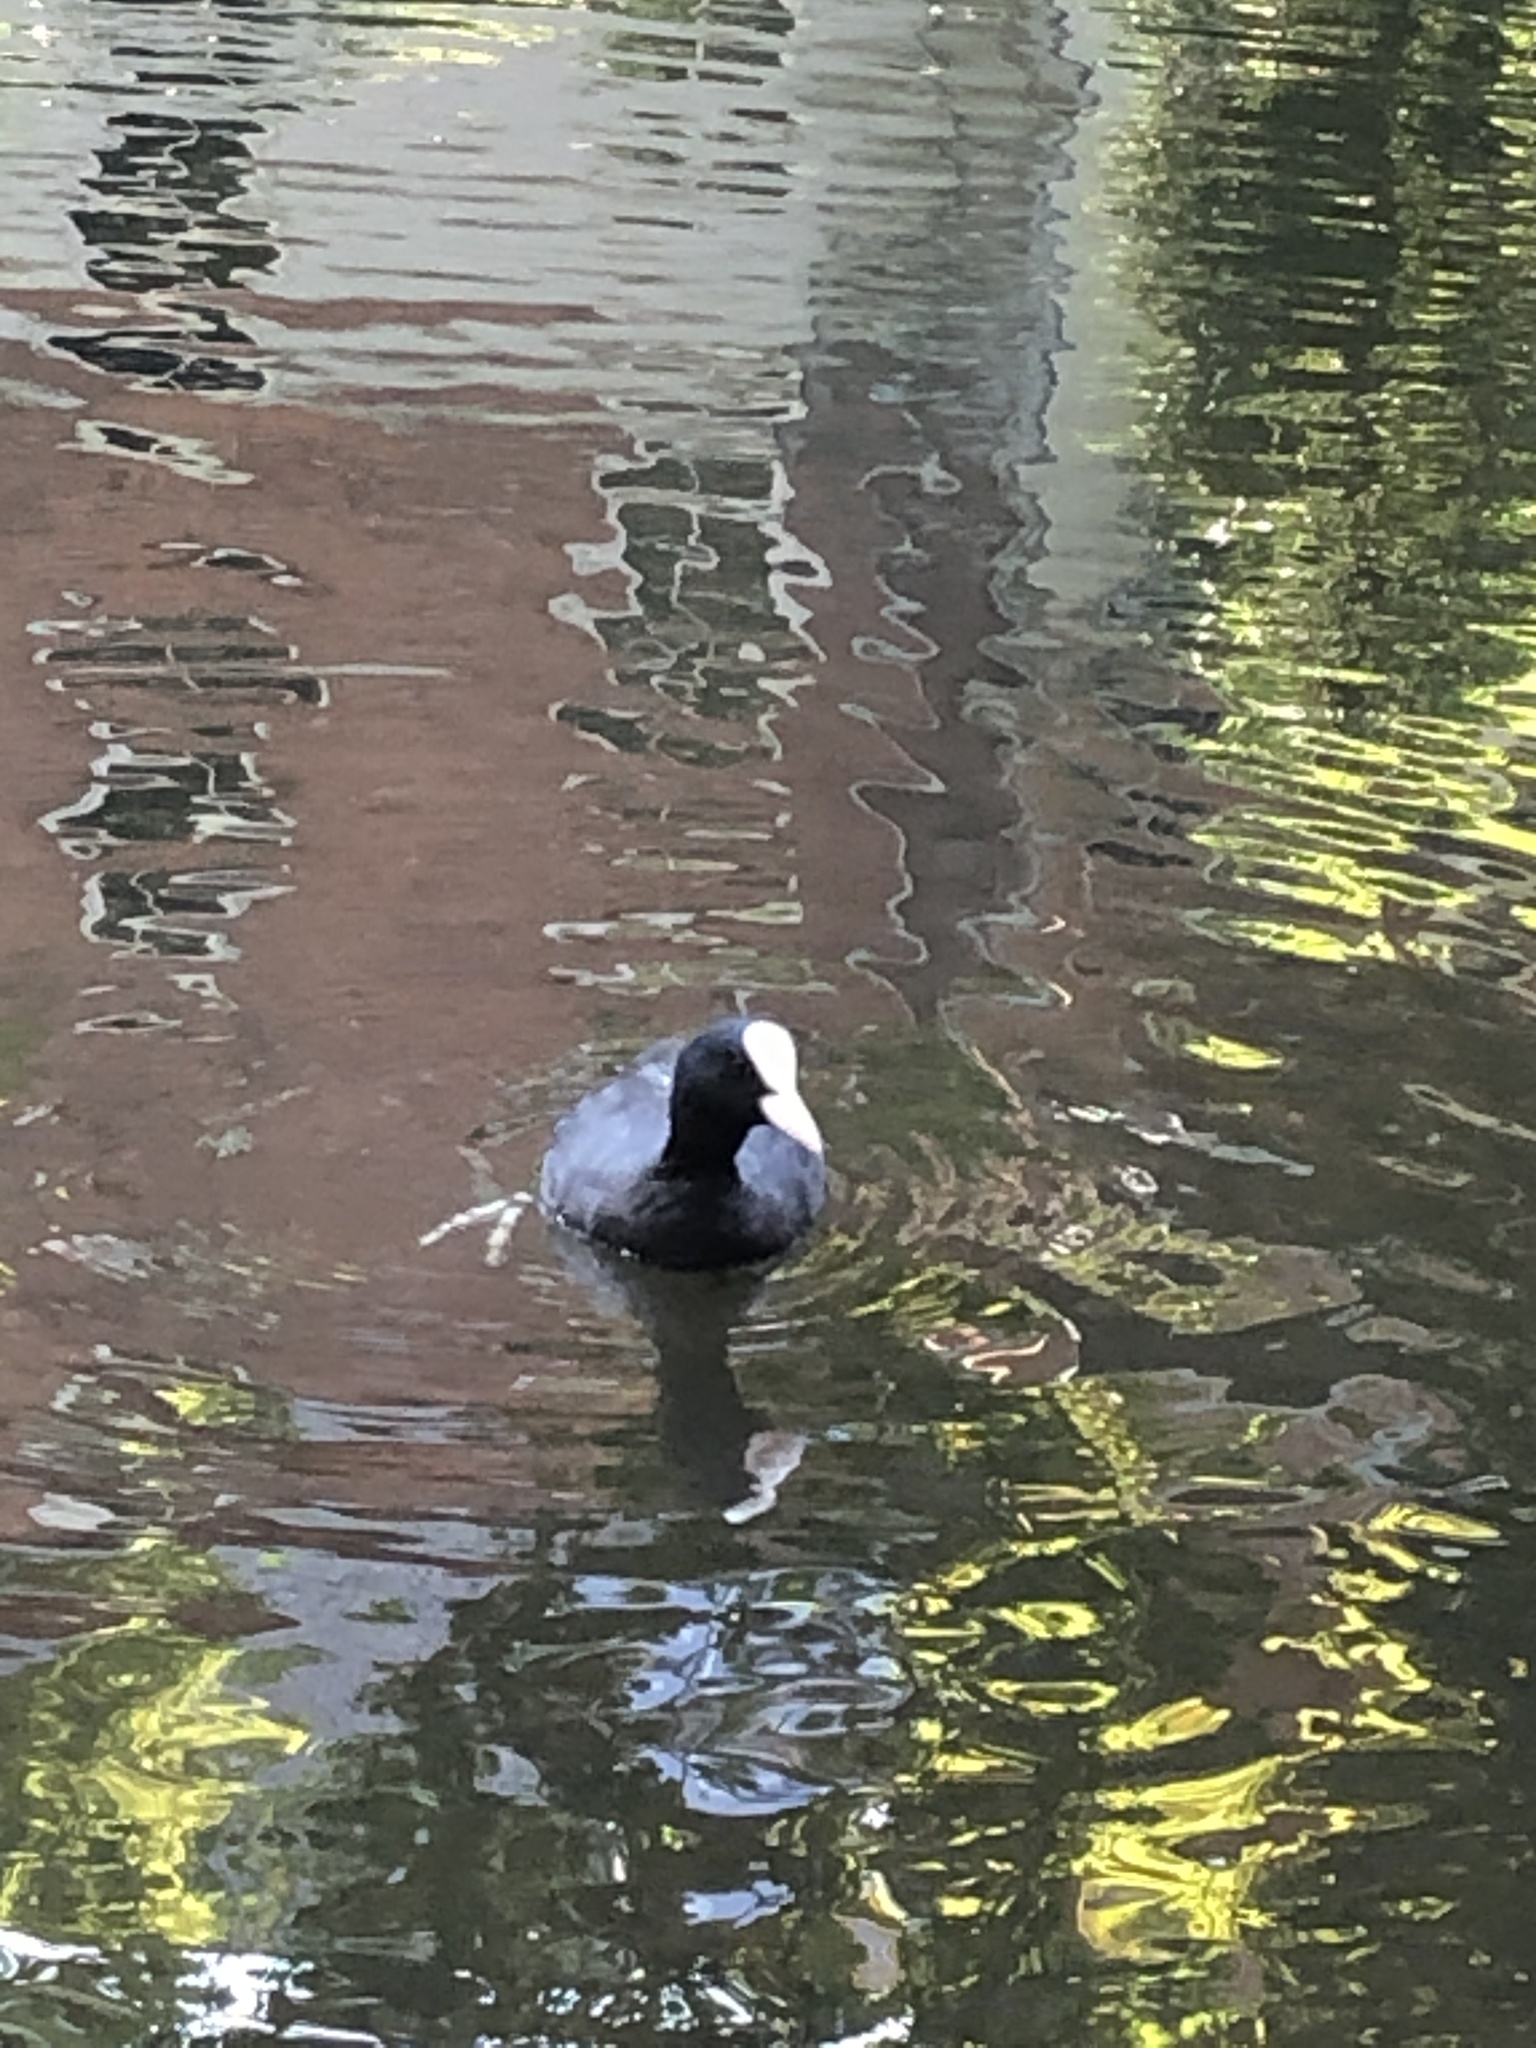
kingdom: Animalia
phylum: Chordata
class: Aves
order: Gruiformes
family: Rallidae
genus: Fulica
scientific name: Fulica atra
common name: Eurasian coot
